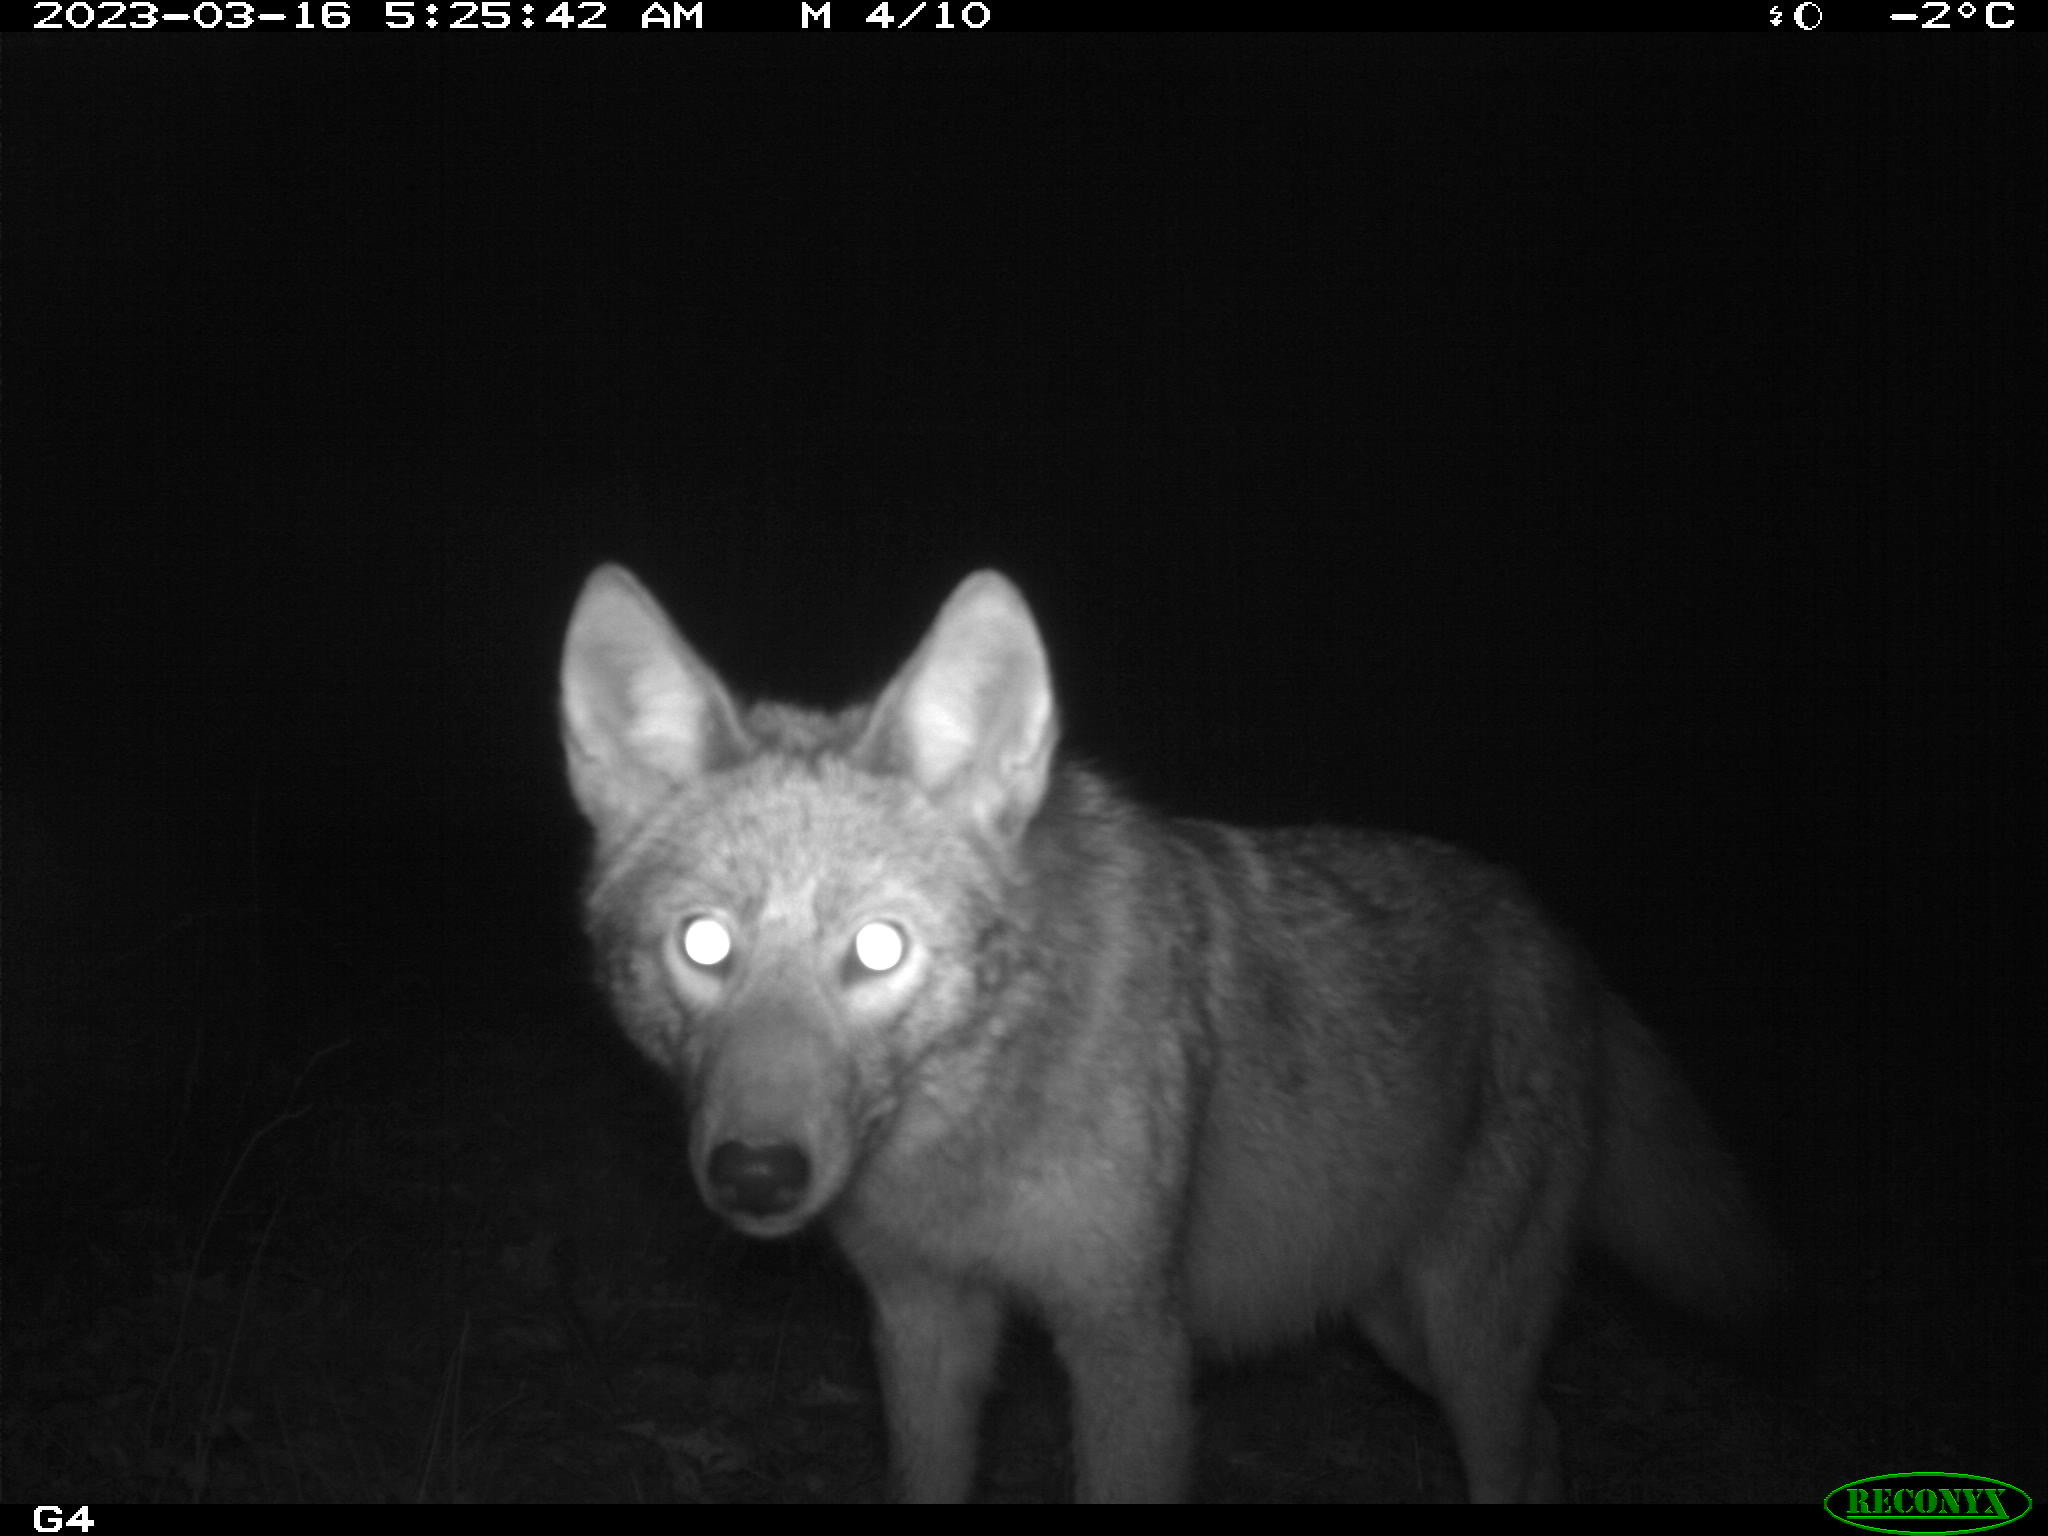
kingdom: Animalia
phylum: Chordata
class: Mammalia
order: Carnivora
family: Canidae
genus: Canis
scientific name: Canis latrans
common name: Coyote
